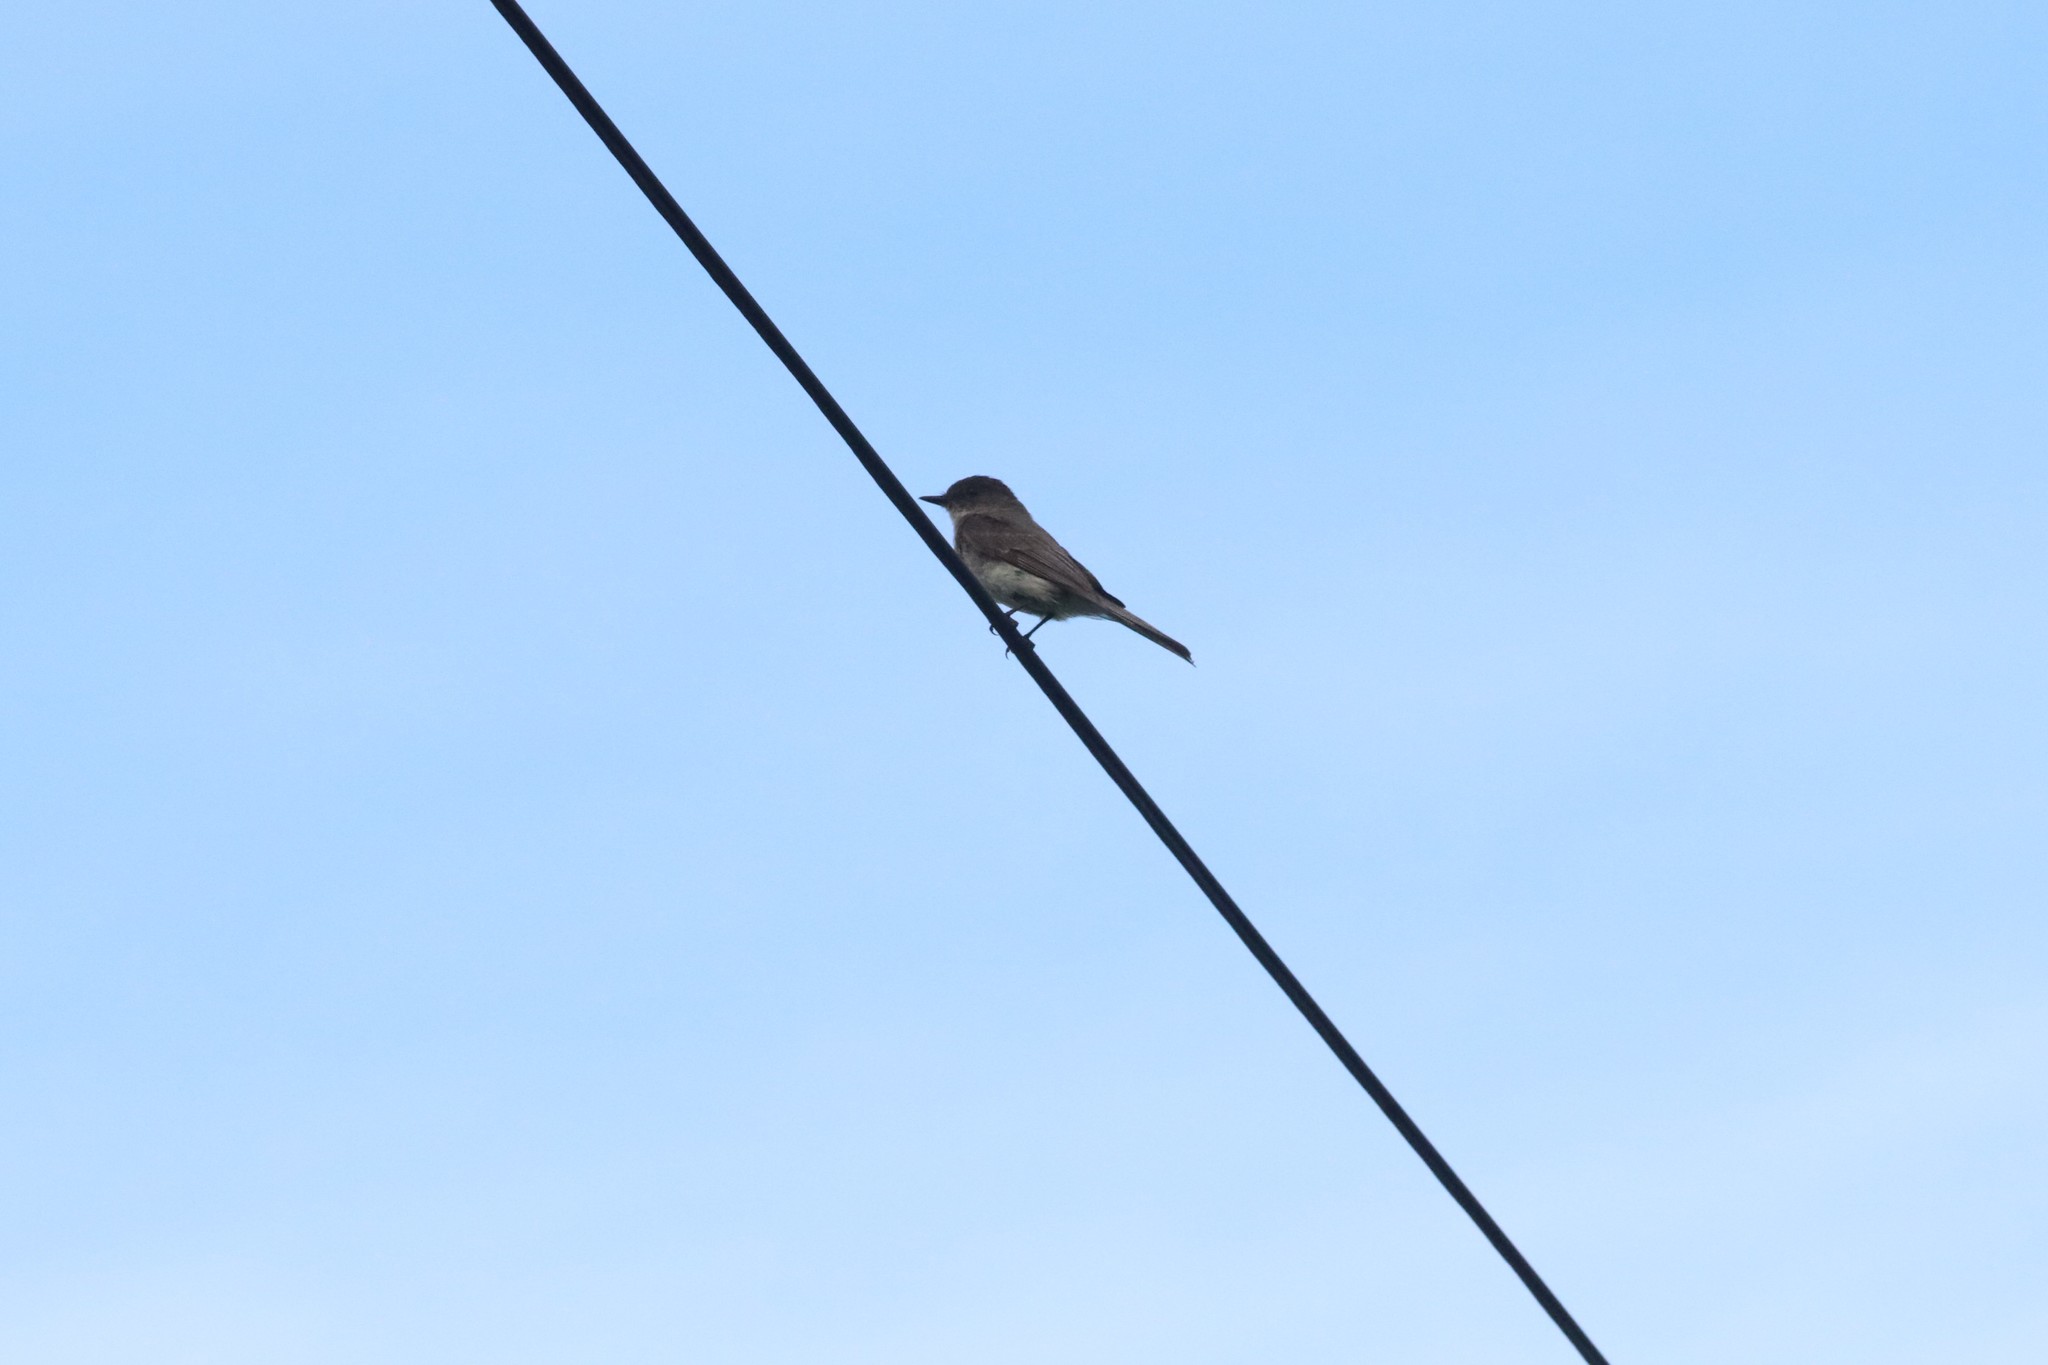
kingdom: Animalia
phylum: Chordata
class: Aves
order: Passeriformes
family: Tyrannidae
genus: Sayornis
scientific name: Sayornis phoebe
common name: Eastern phoebe
